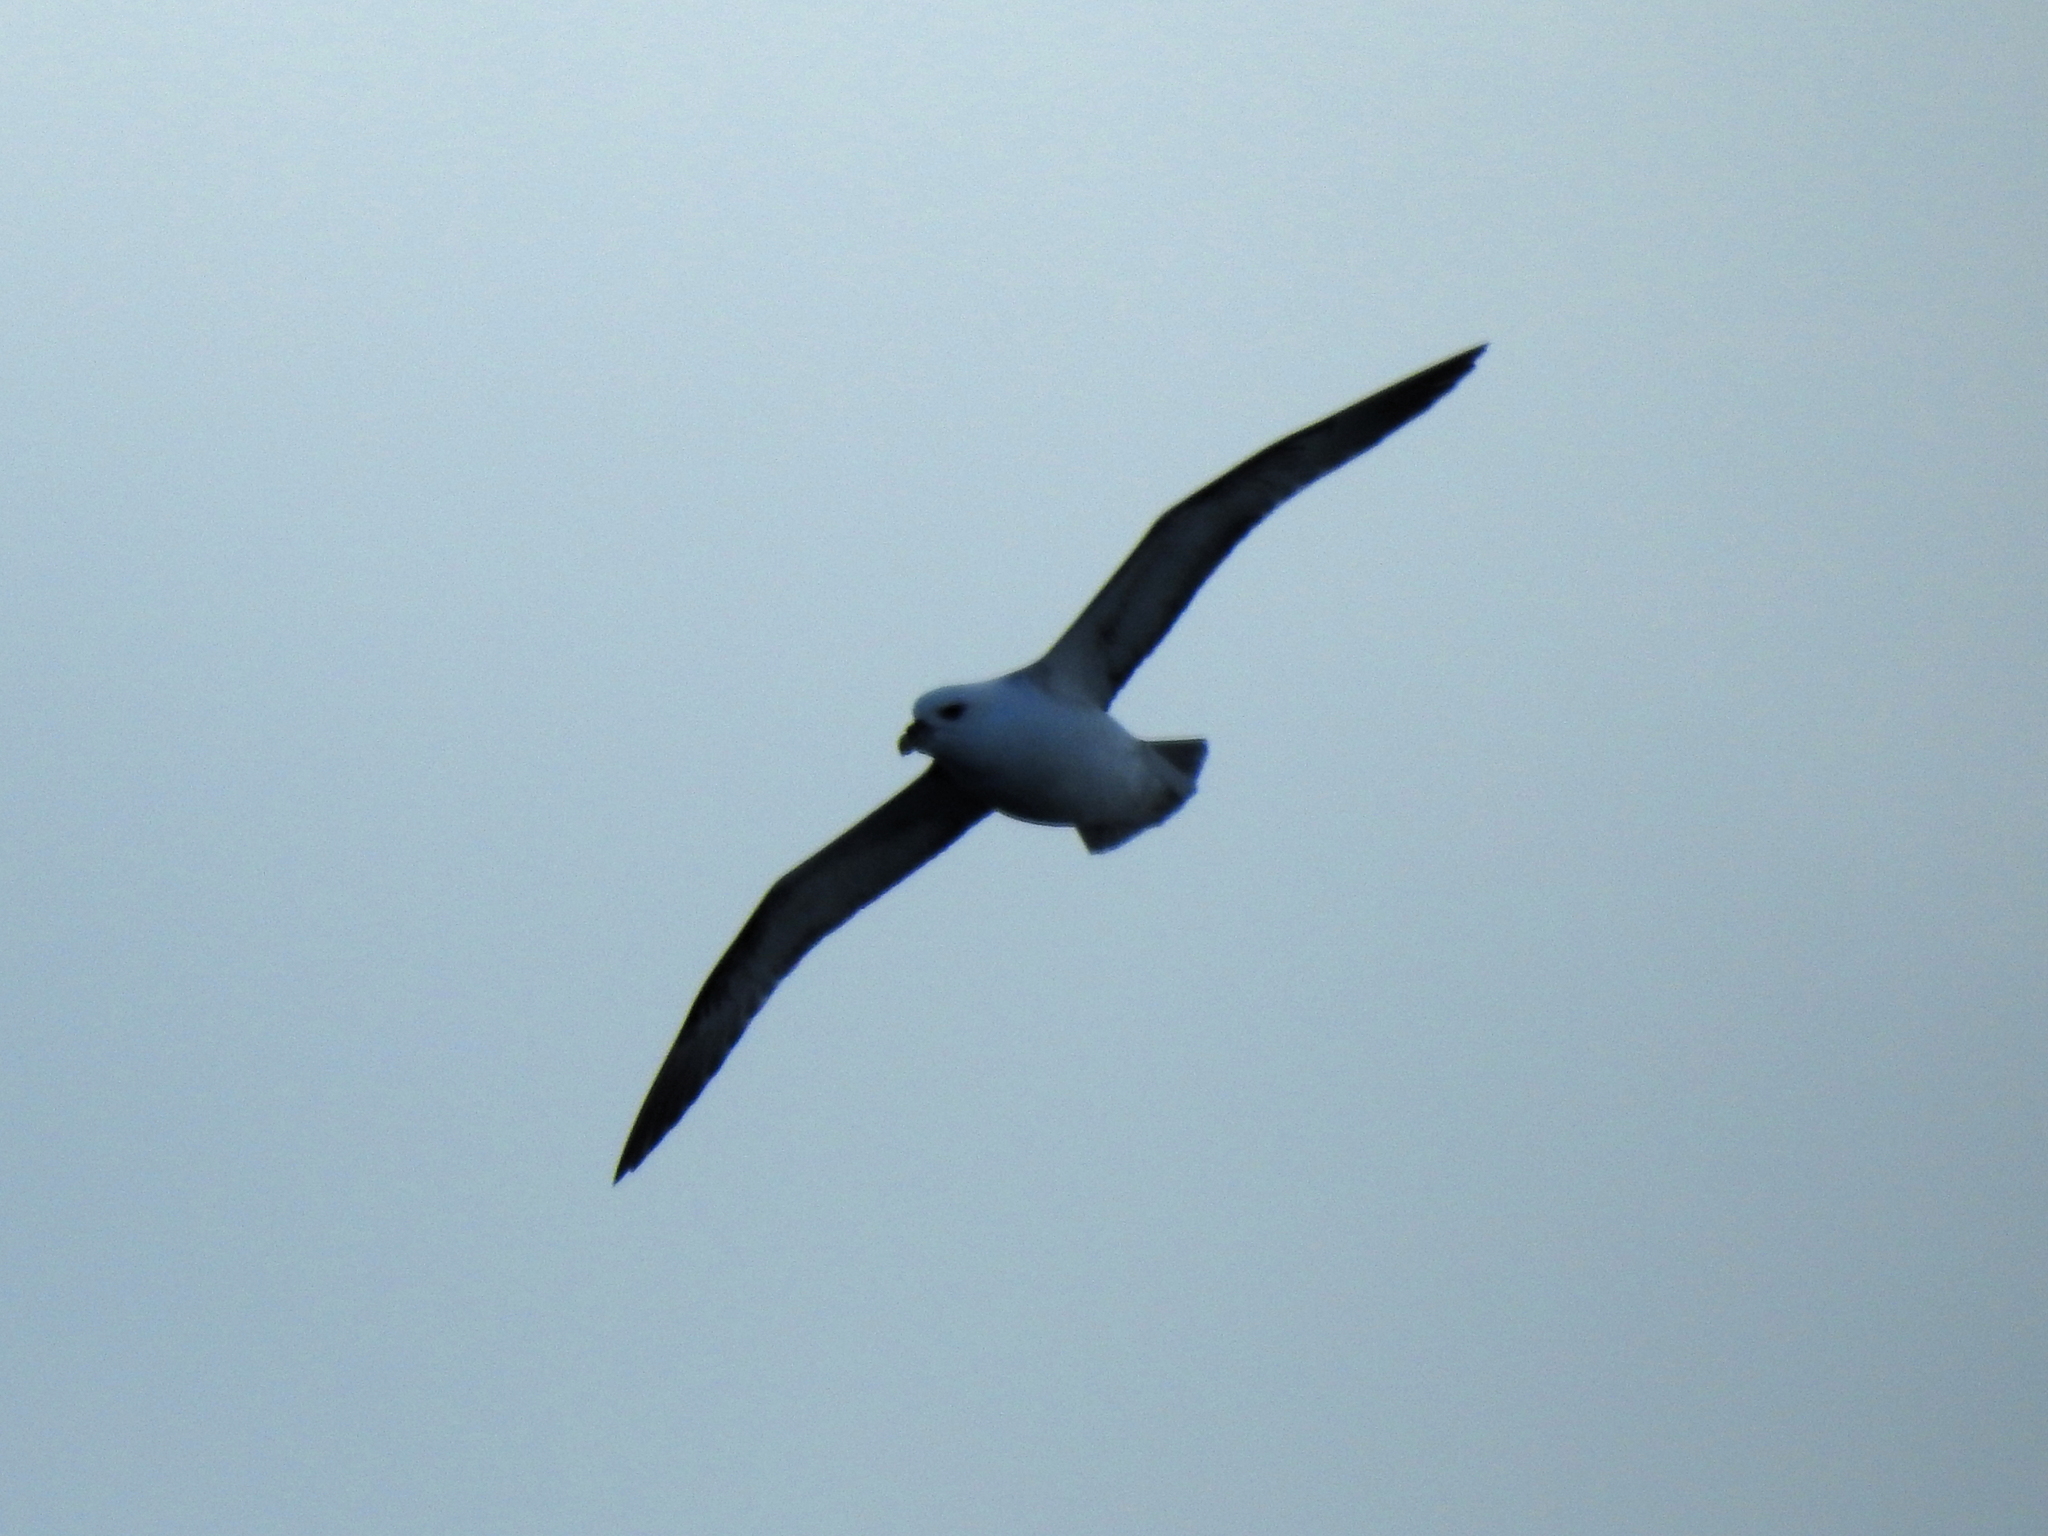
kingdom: Animalia
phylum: Chordata
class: Aves
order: Procellariiformes
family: Procellariidae
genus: Fulmarus
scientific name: Fulmarus glacialis
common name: Northern fulmar
